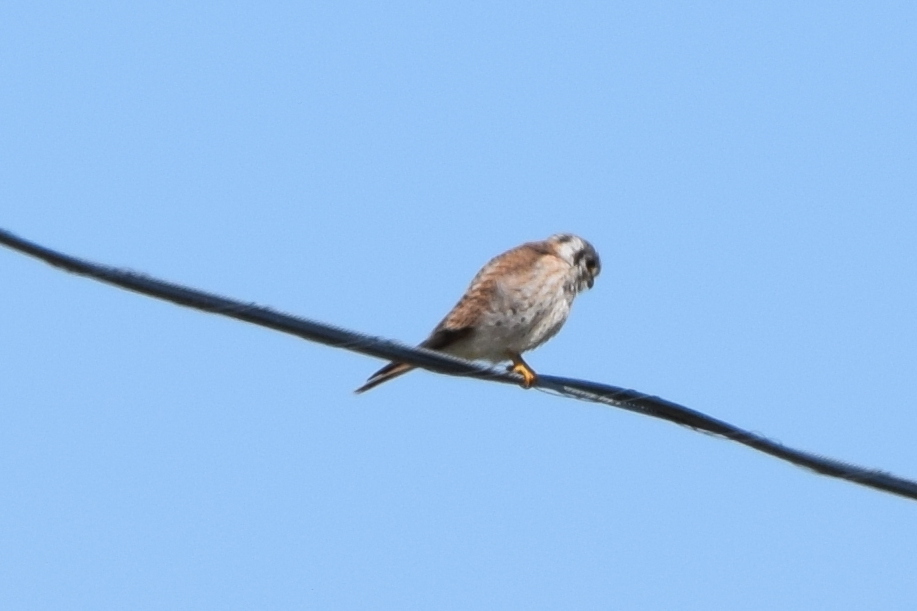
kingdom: Animalia
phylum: Chordata
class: Aves
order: Falconiformes
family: Falconidae
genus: Falco
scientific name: Falco sparverius
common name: American kestrel
